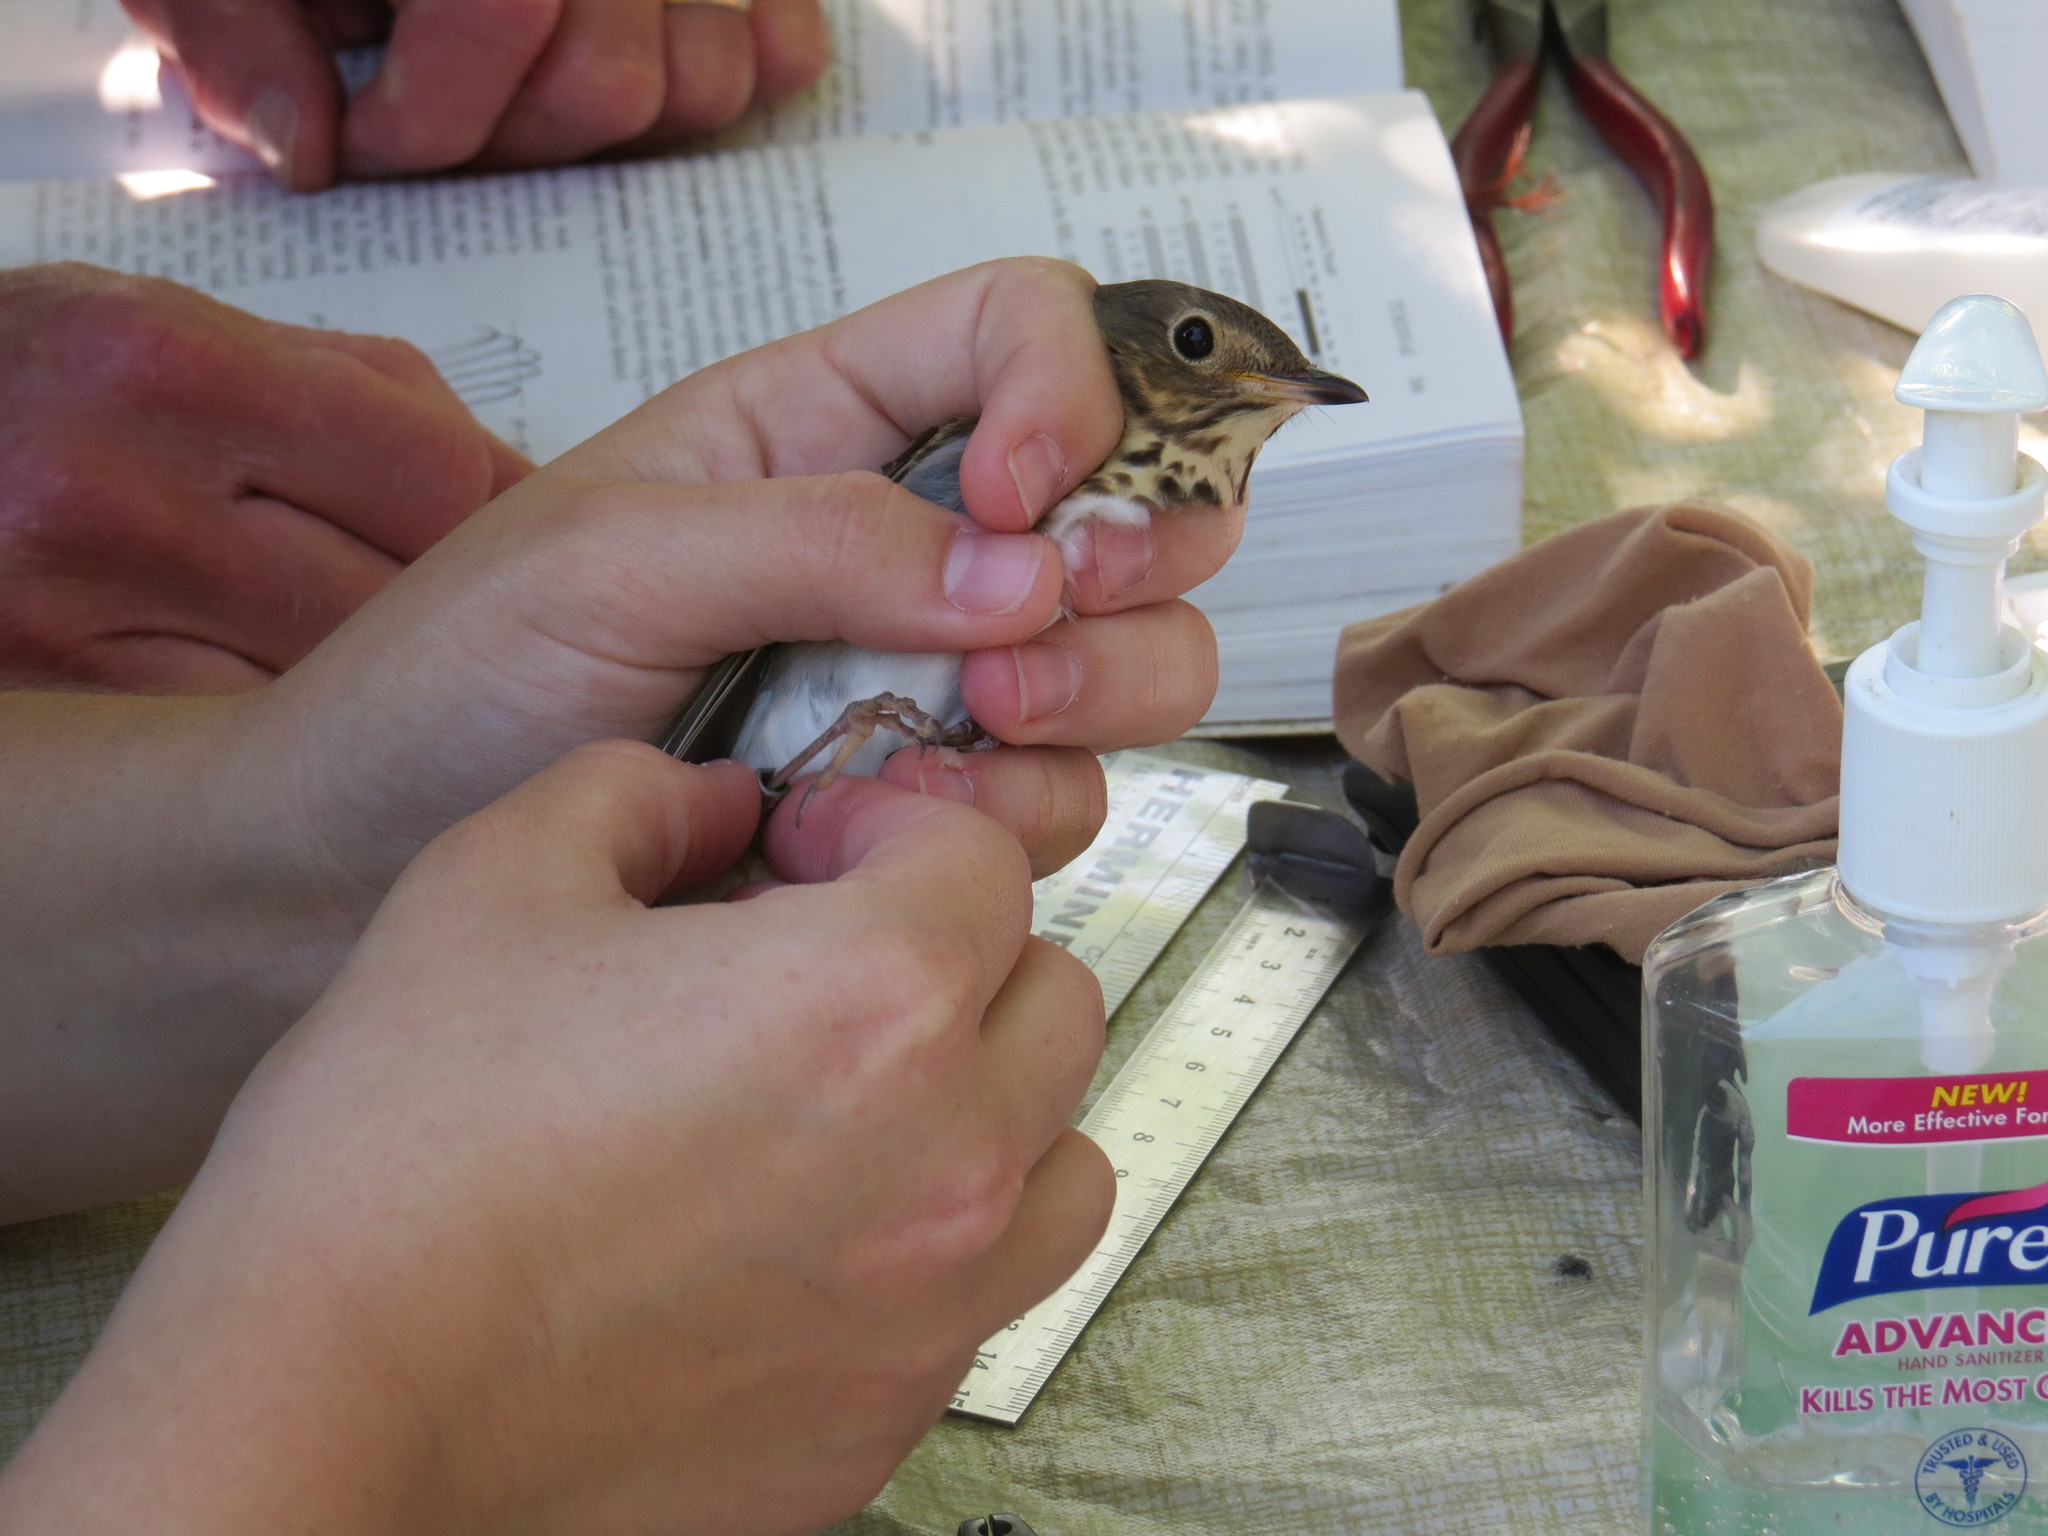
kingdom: Animalia
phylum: Chordata
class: Aves
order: Passeriformes
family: Turdidae
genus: Catharus
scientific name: Catharus ustulatus
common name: Swainson's thrush
